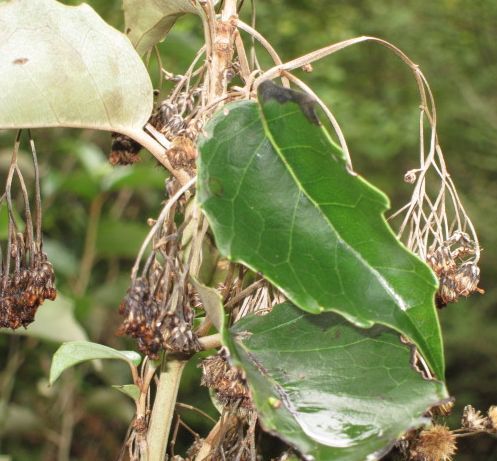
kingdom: Plantae
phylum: Tracheophyta
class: Magnoliopsida
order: Asterales
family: Asteraceae
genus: Olearia
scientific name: Olearia arborescens
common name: Glossy tree daisy
